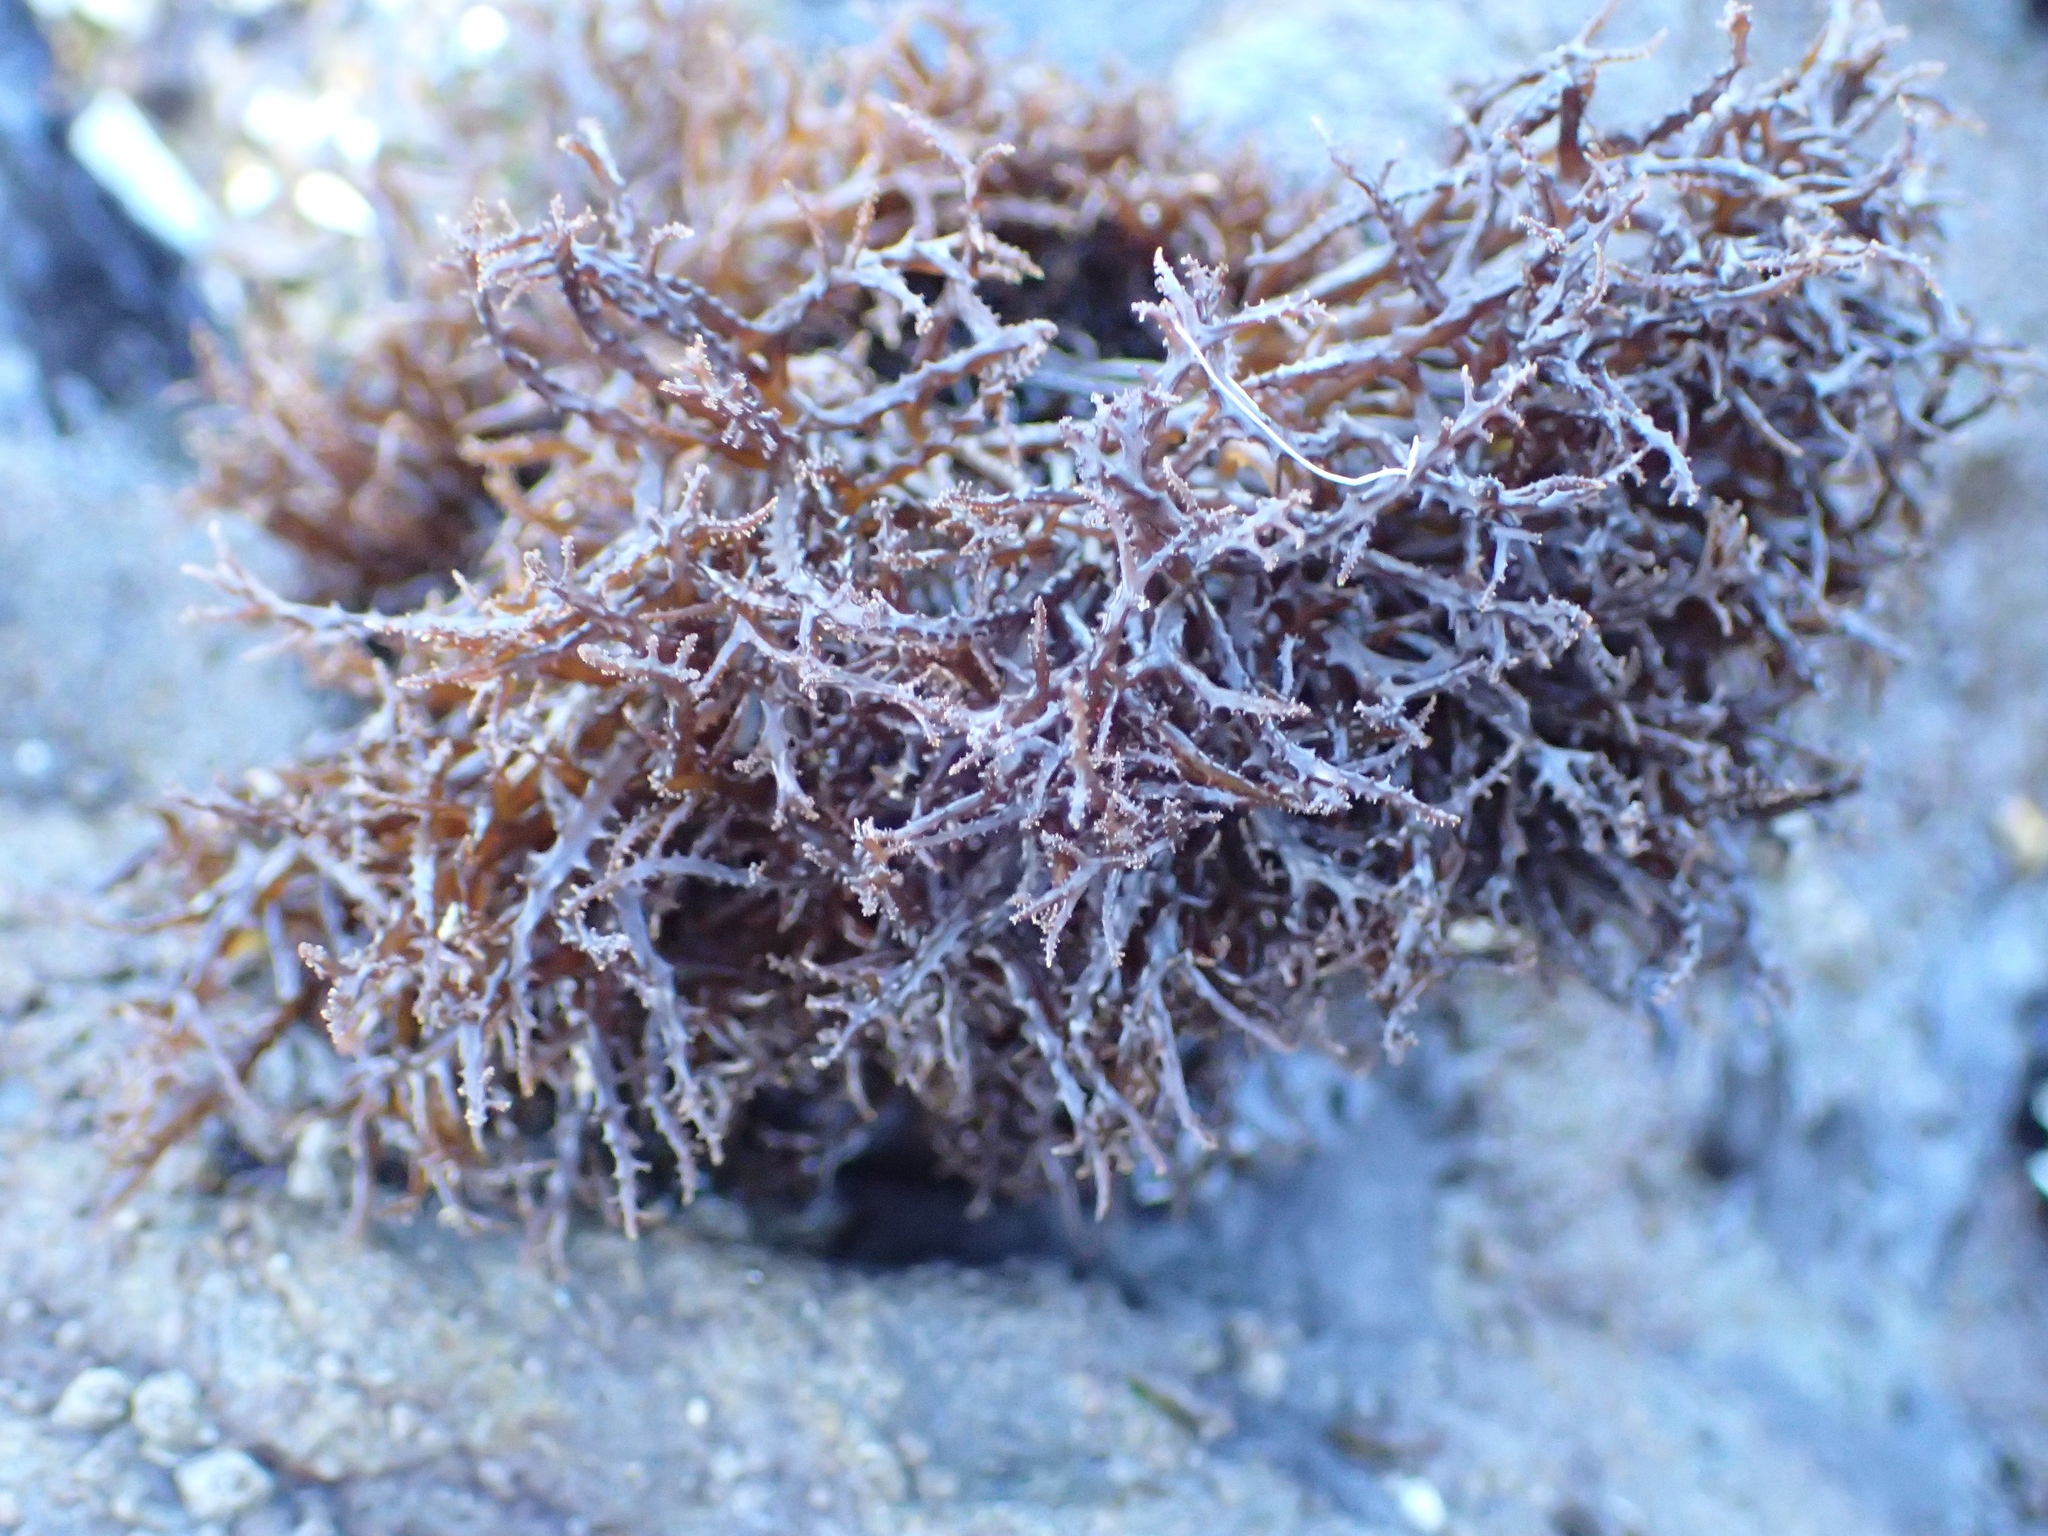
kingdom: Plantae
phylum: Rhodophyta
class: Florideophyceae
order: Gigartinales
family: Endocladiaceae
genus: Endocladia
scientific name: Endocladia muricata
